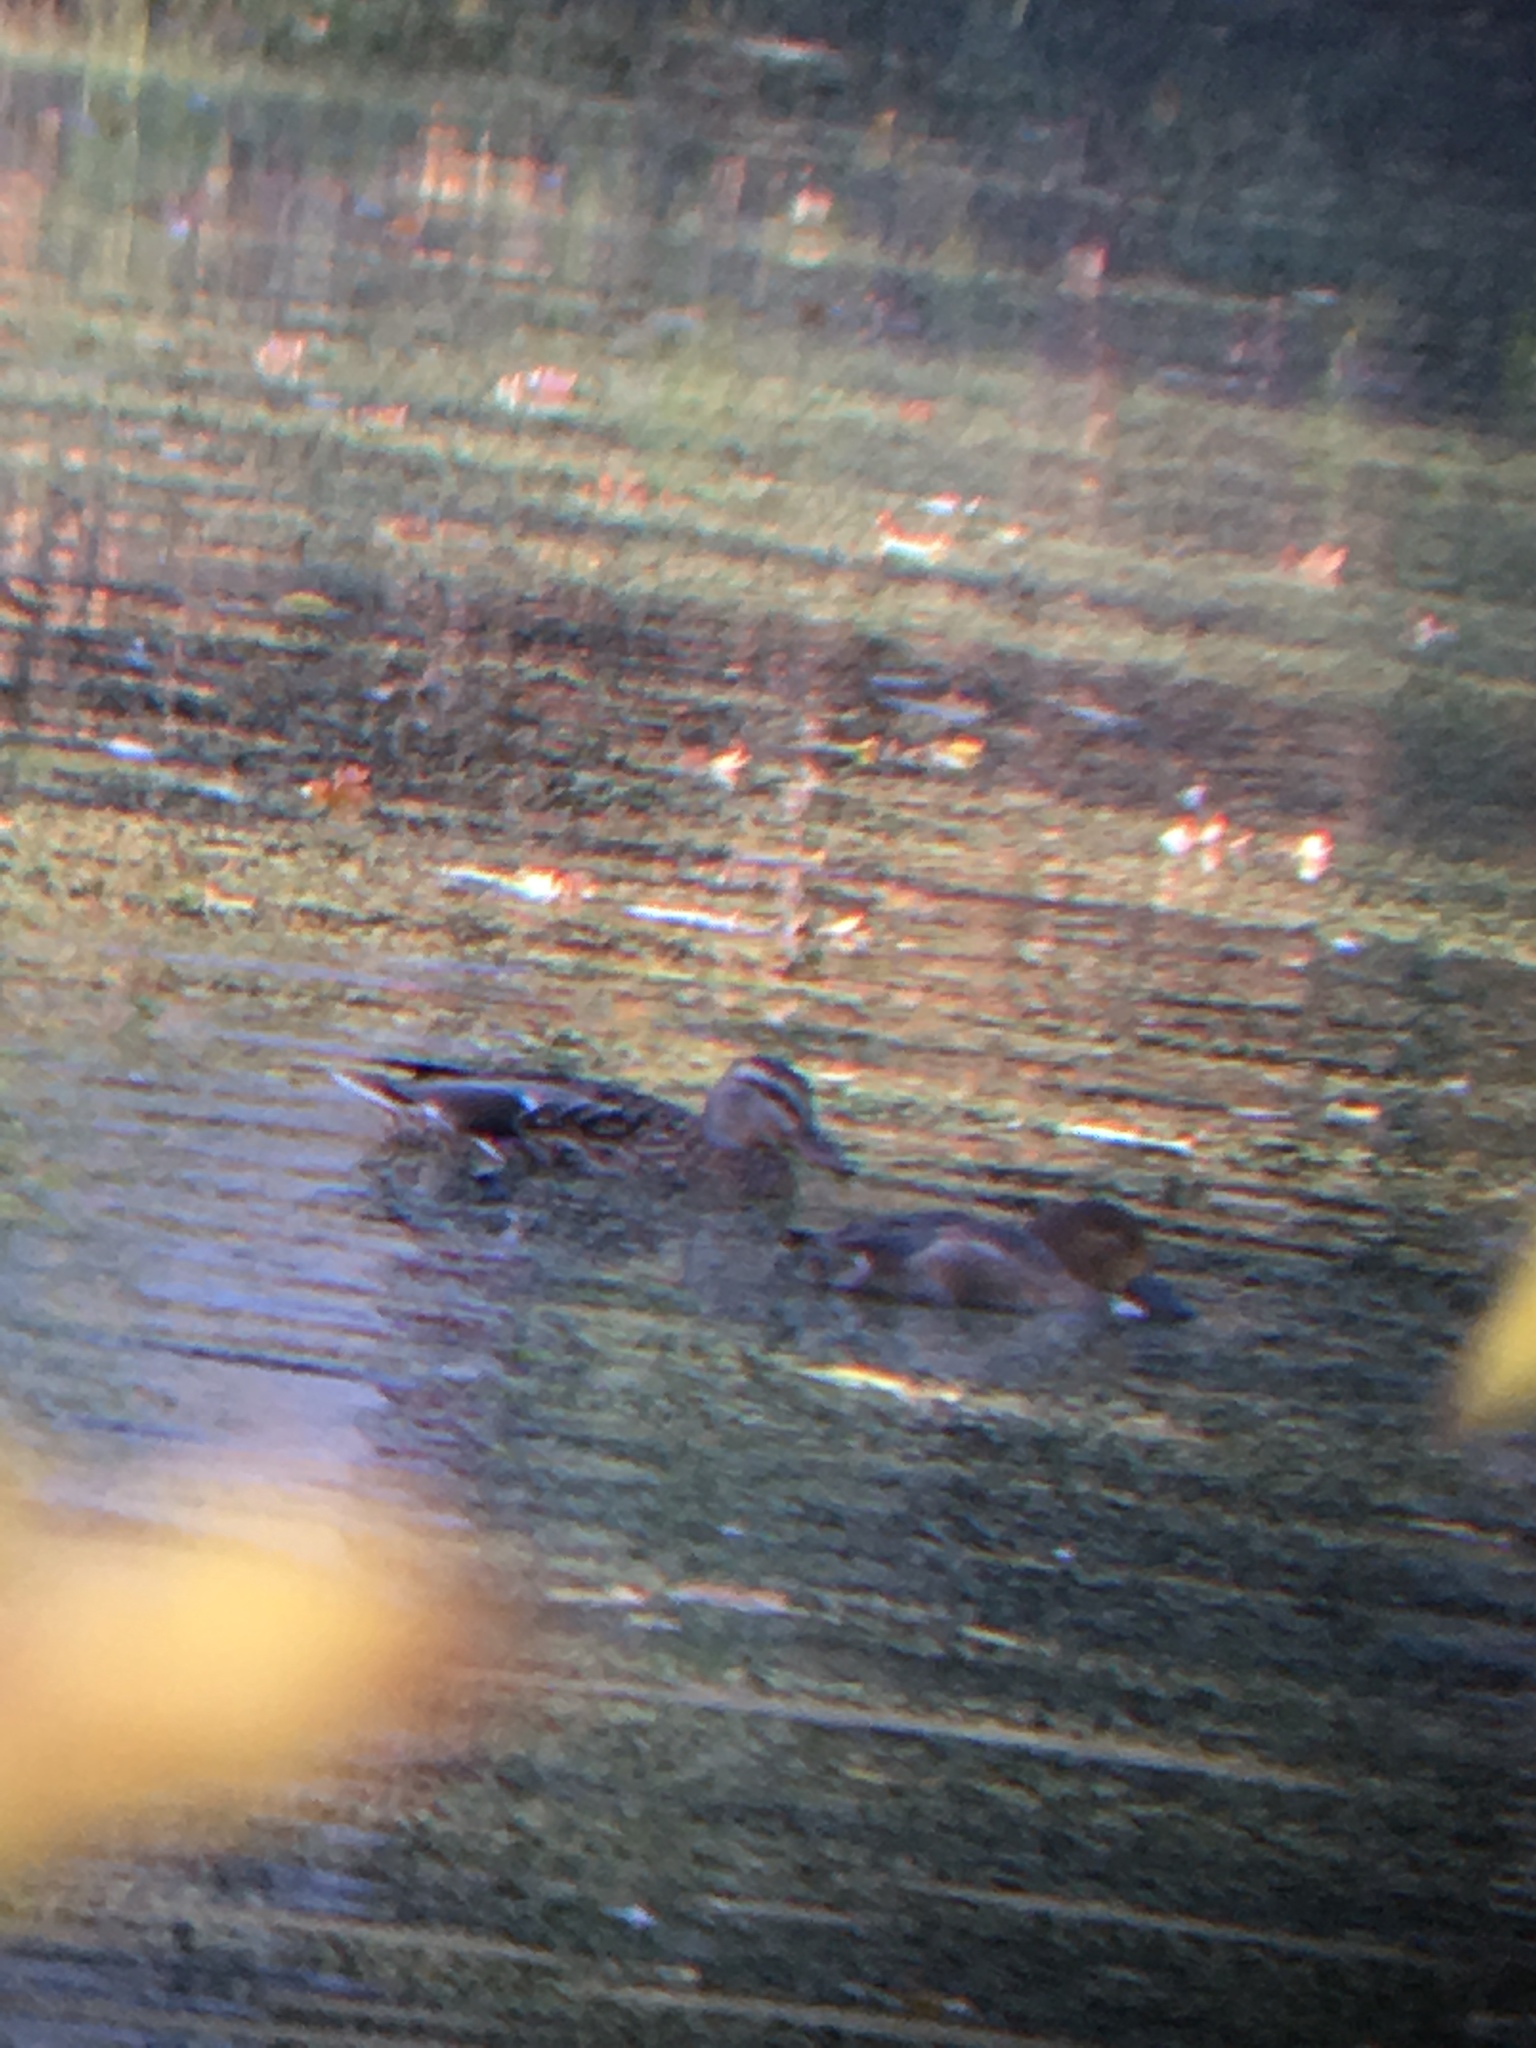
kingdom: Animalia
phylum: Chordata
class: Aves
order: Anseriformes
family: Anatidae
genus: Aythya
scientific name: Aythya americana
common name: Redhead
